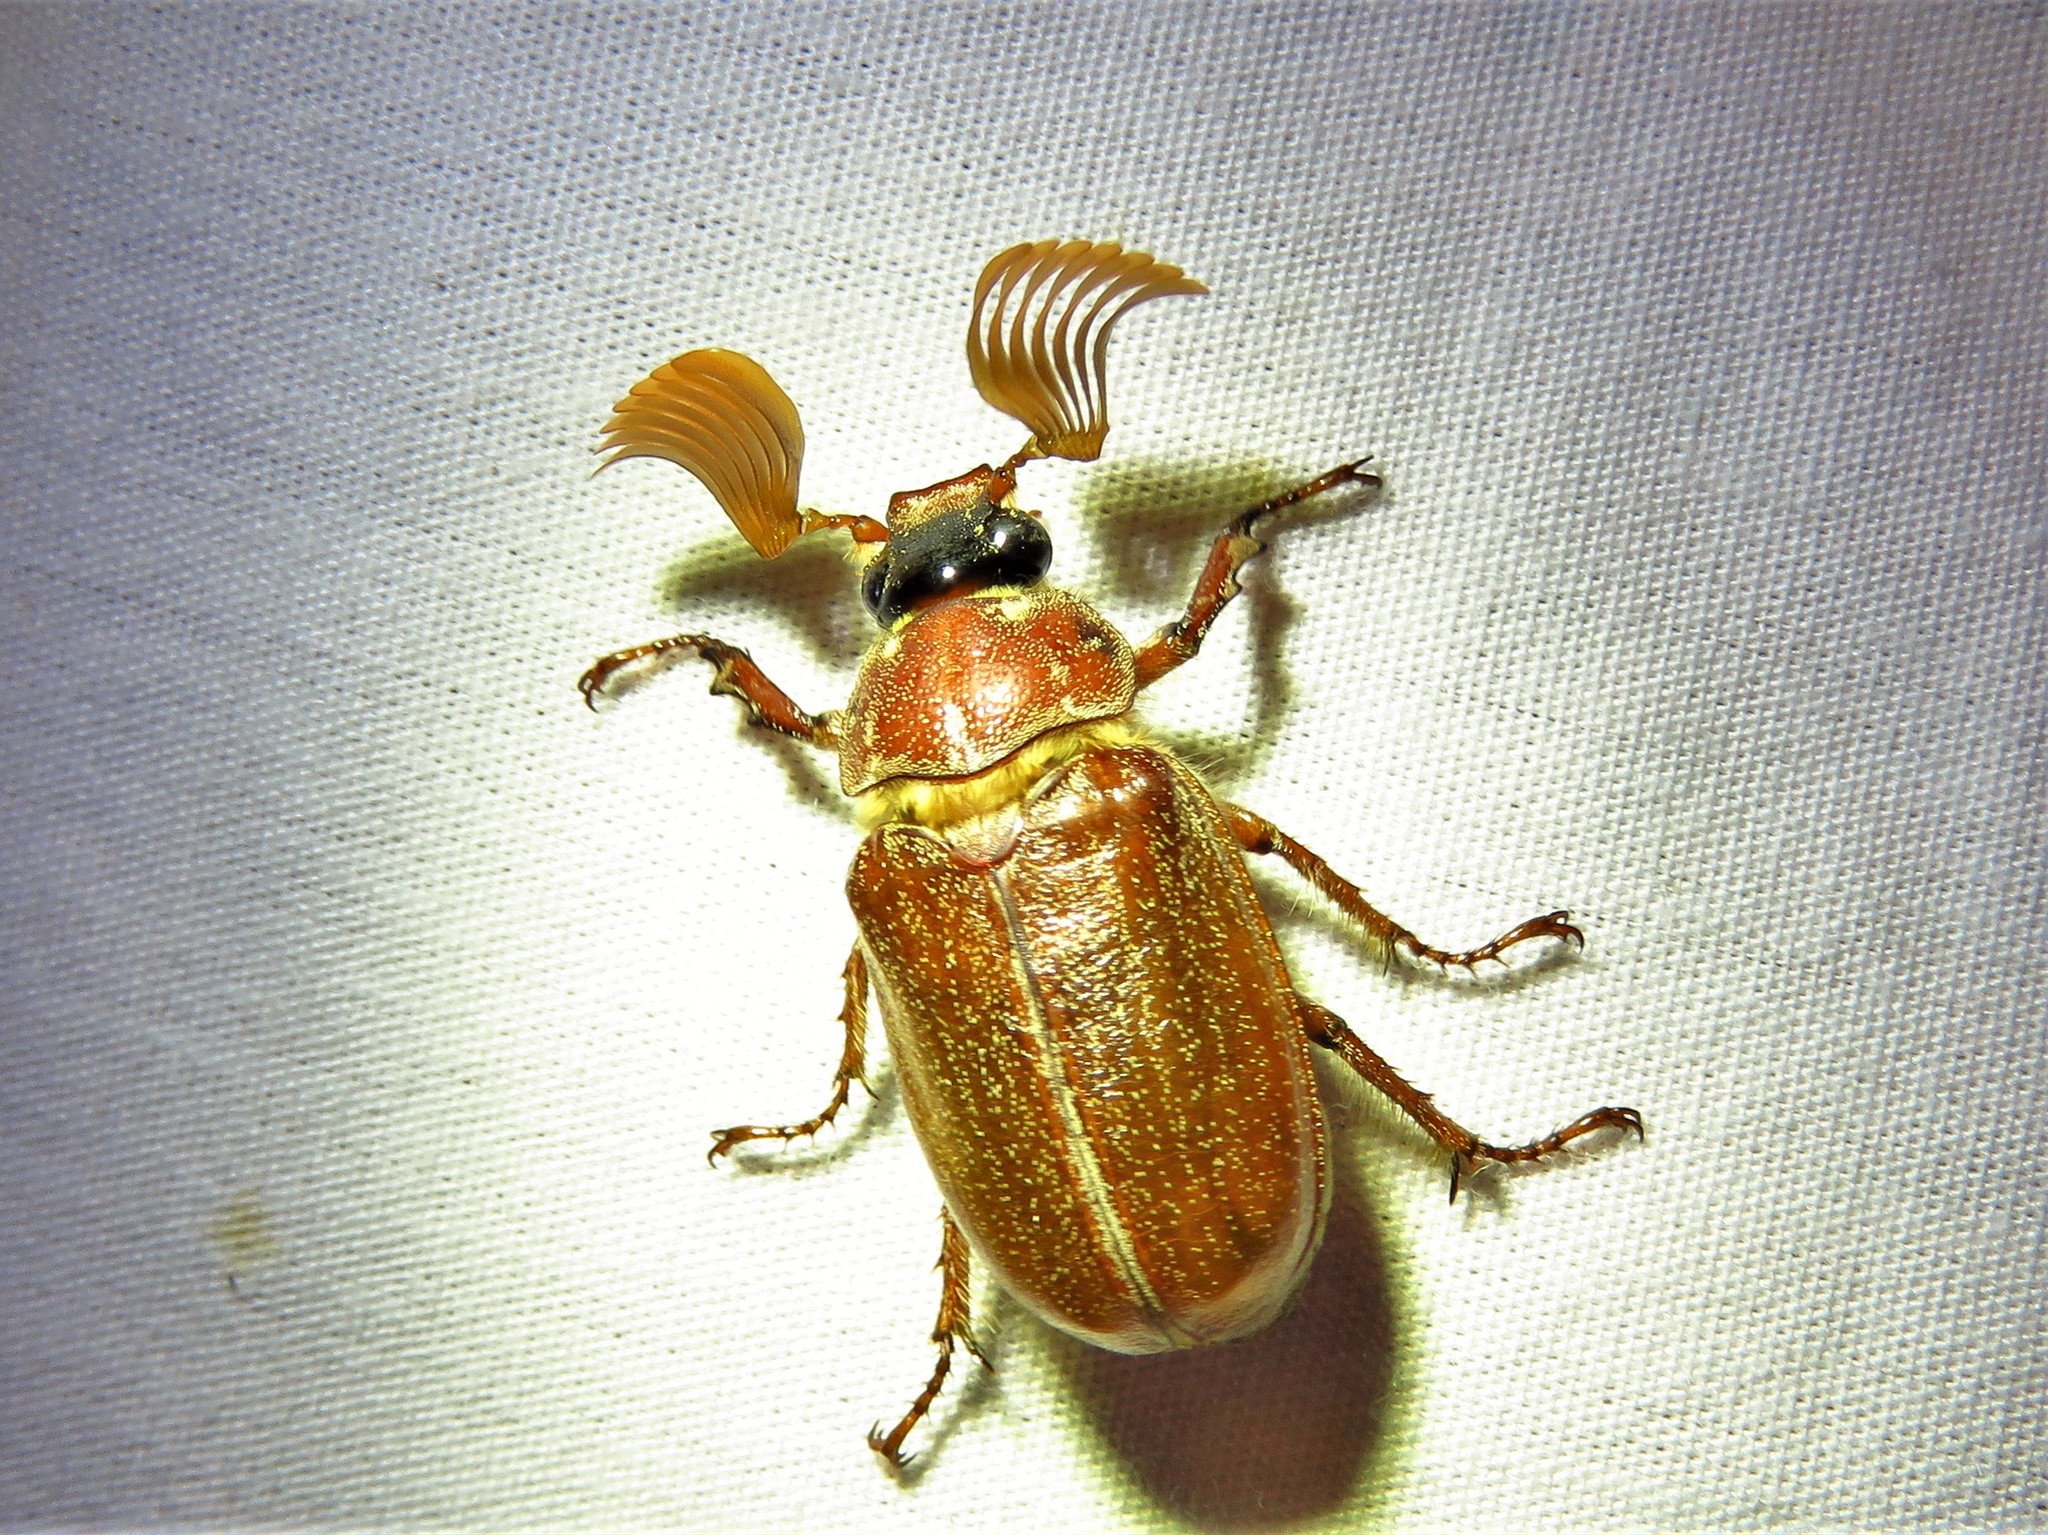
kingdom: Animalia
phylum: Arthropoda
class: Insecta
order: Coleoptera
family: Scarabaeidae
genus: Polyphylla
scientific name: Polyphylla hammondi
